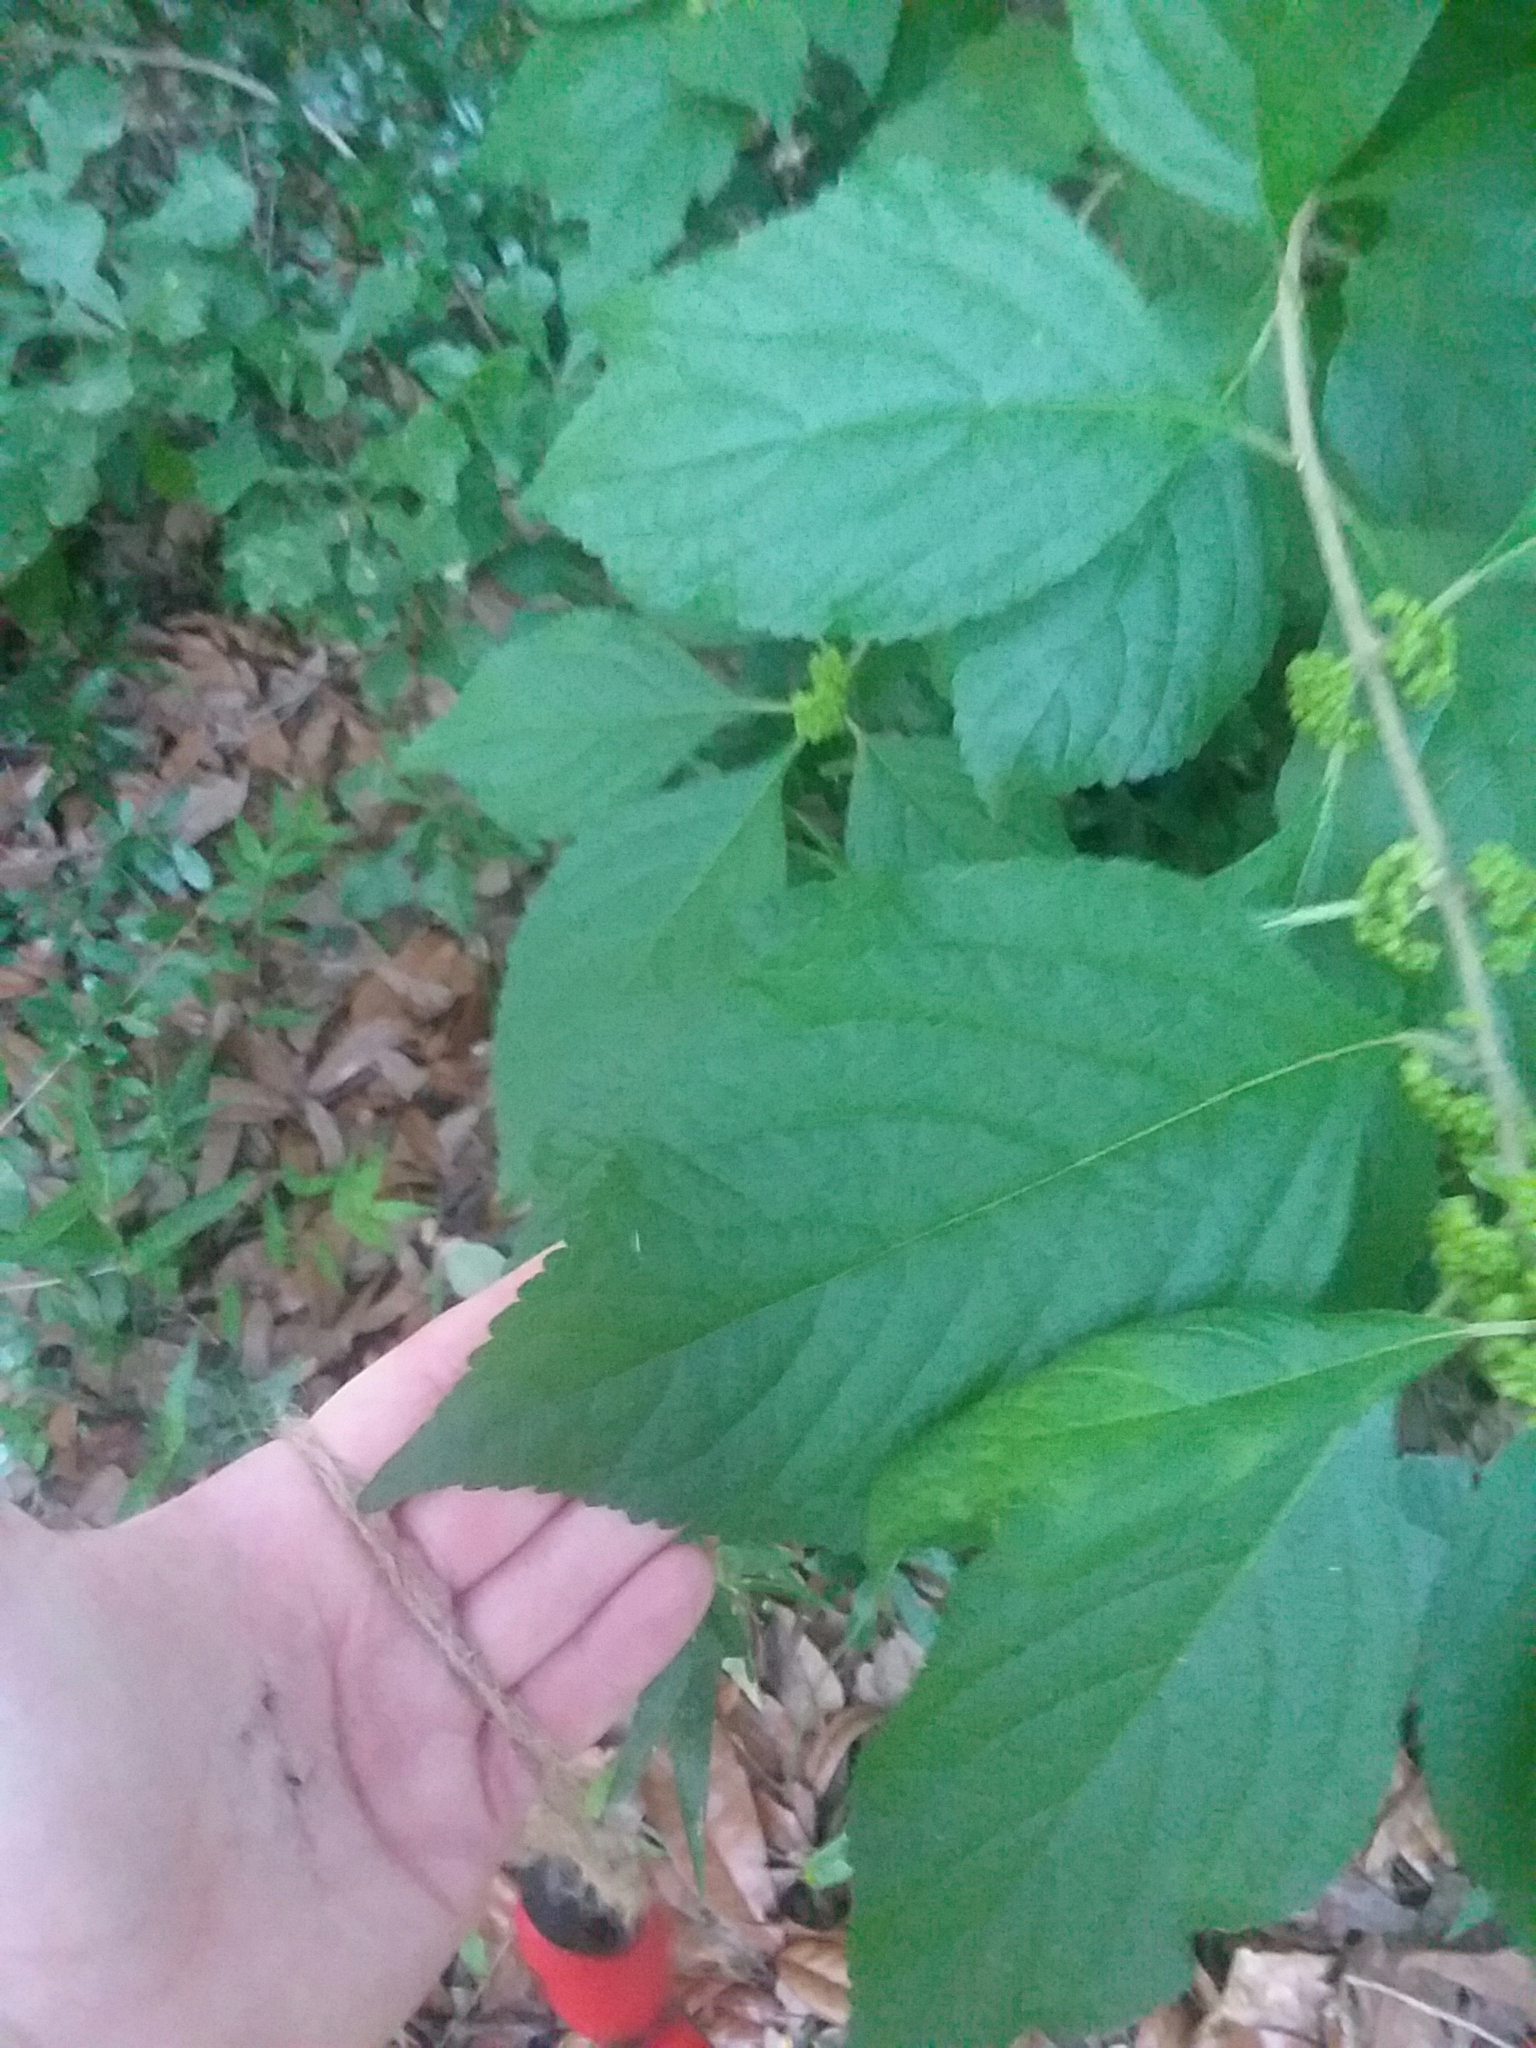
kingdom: Plantae
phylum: Tracheophyta
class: Magnoliopsida
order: Lamiales
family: Lamiaceae
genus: Callicarpa
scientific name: Callicarpa americana
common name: American beautyberry
